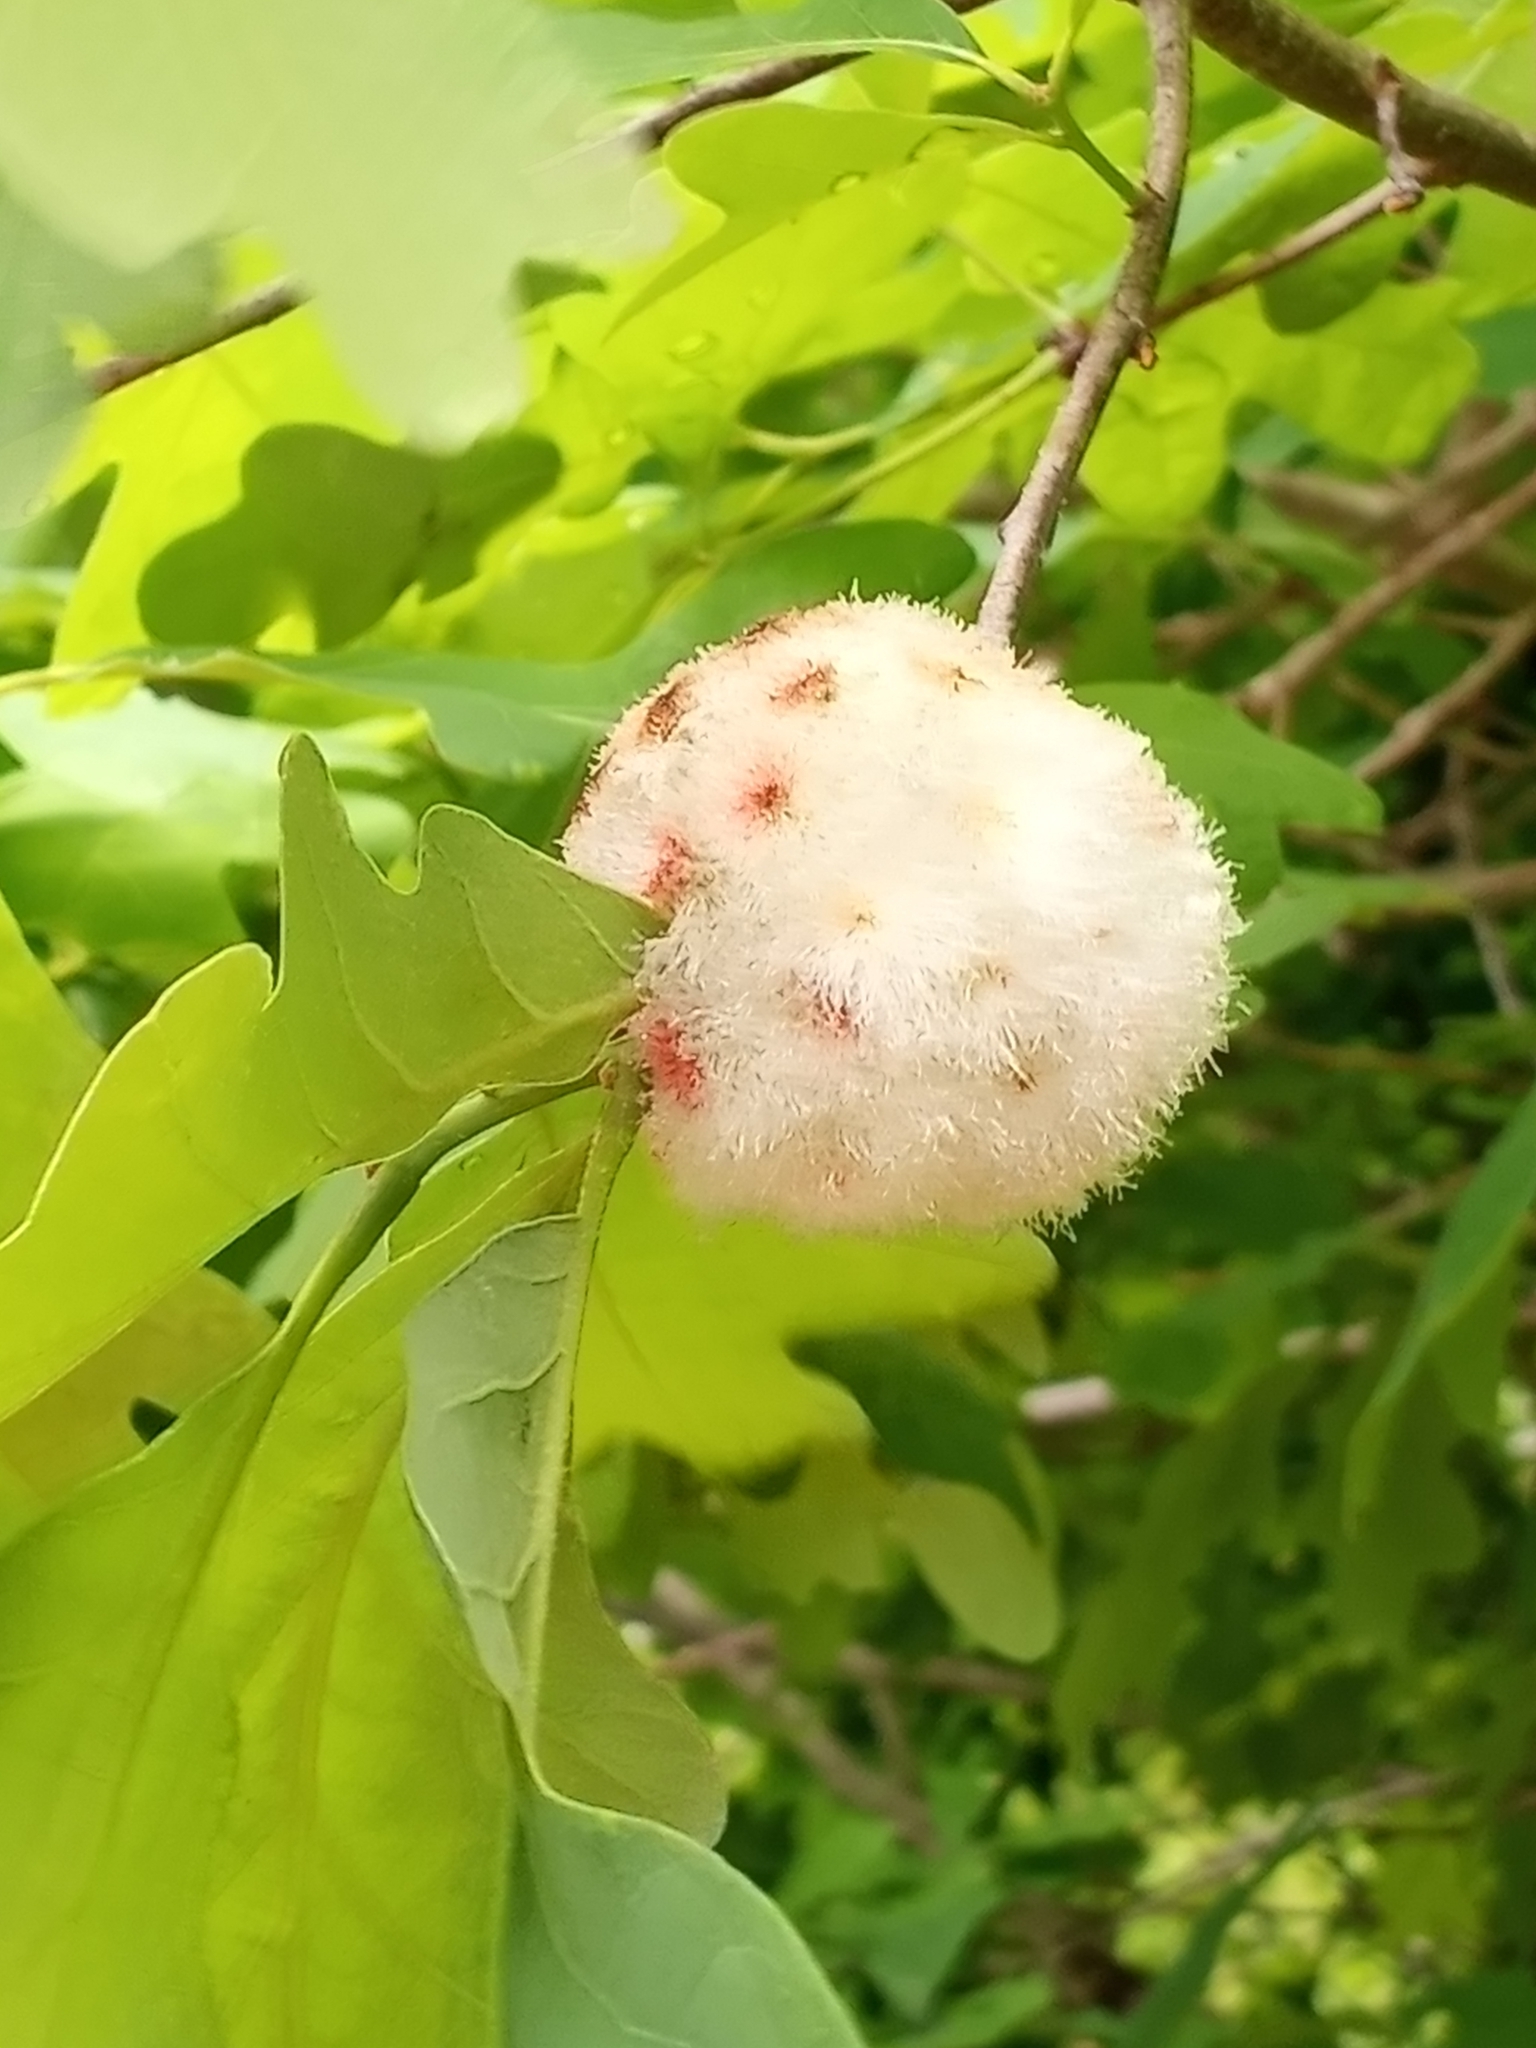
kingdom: Animalia
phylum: Arthropoda
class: Insecta
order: Hymenoptera
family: Cynipidae
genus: Callirhytis
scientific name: Callirhytis
